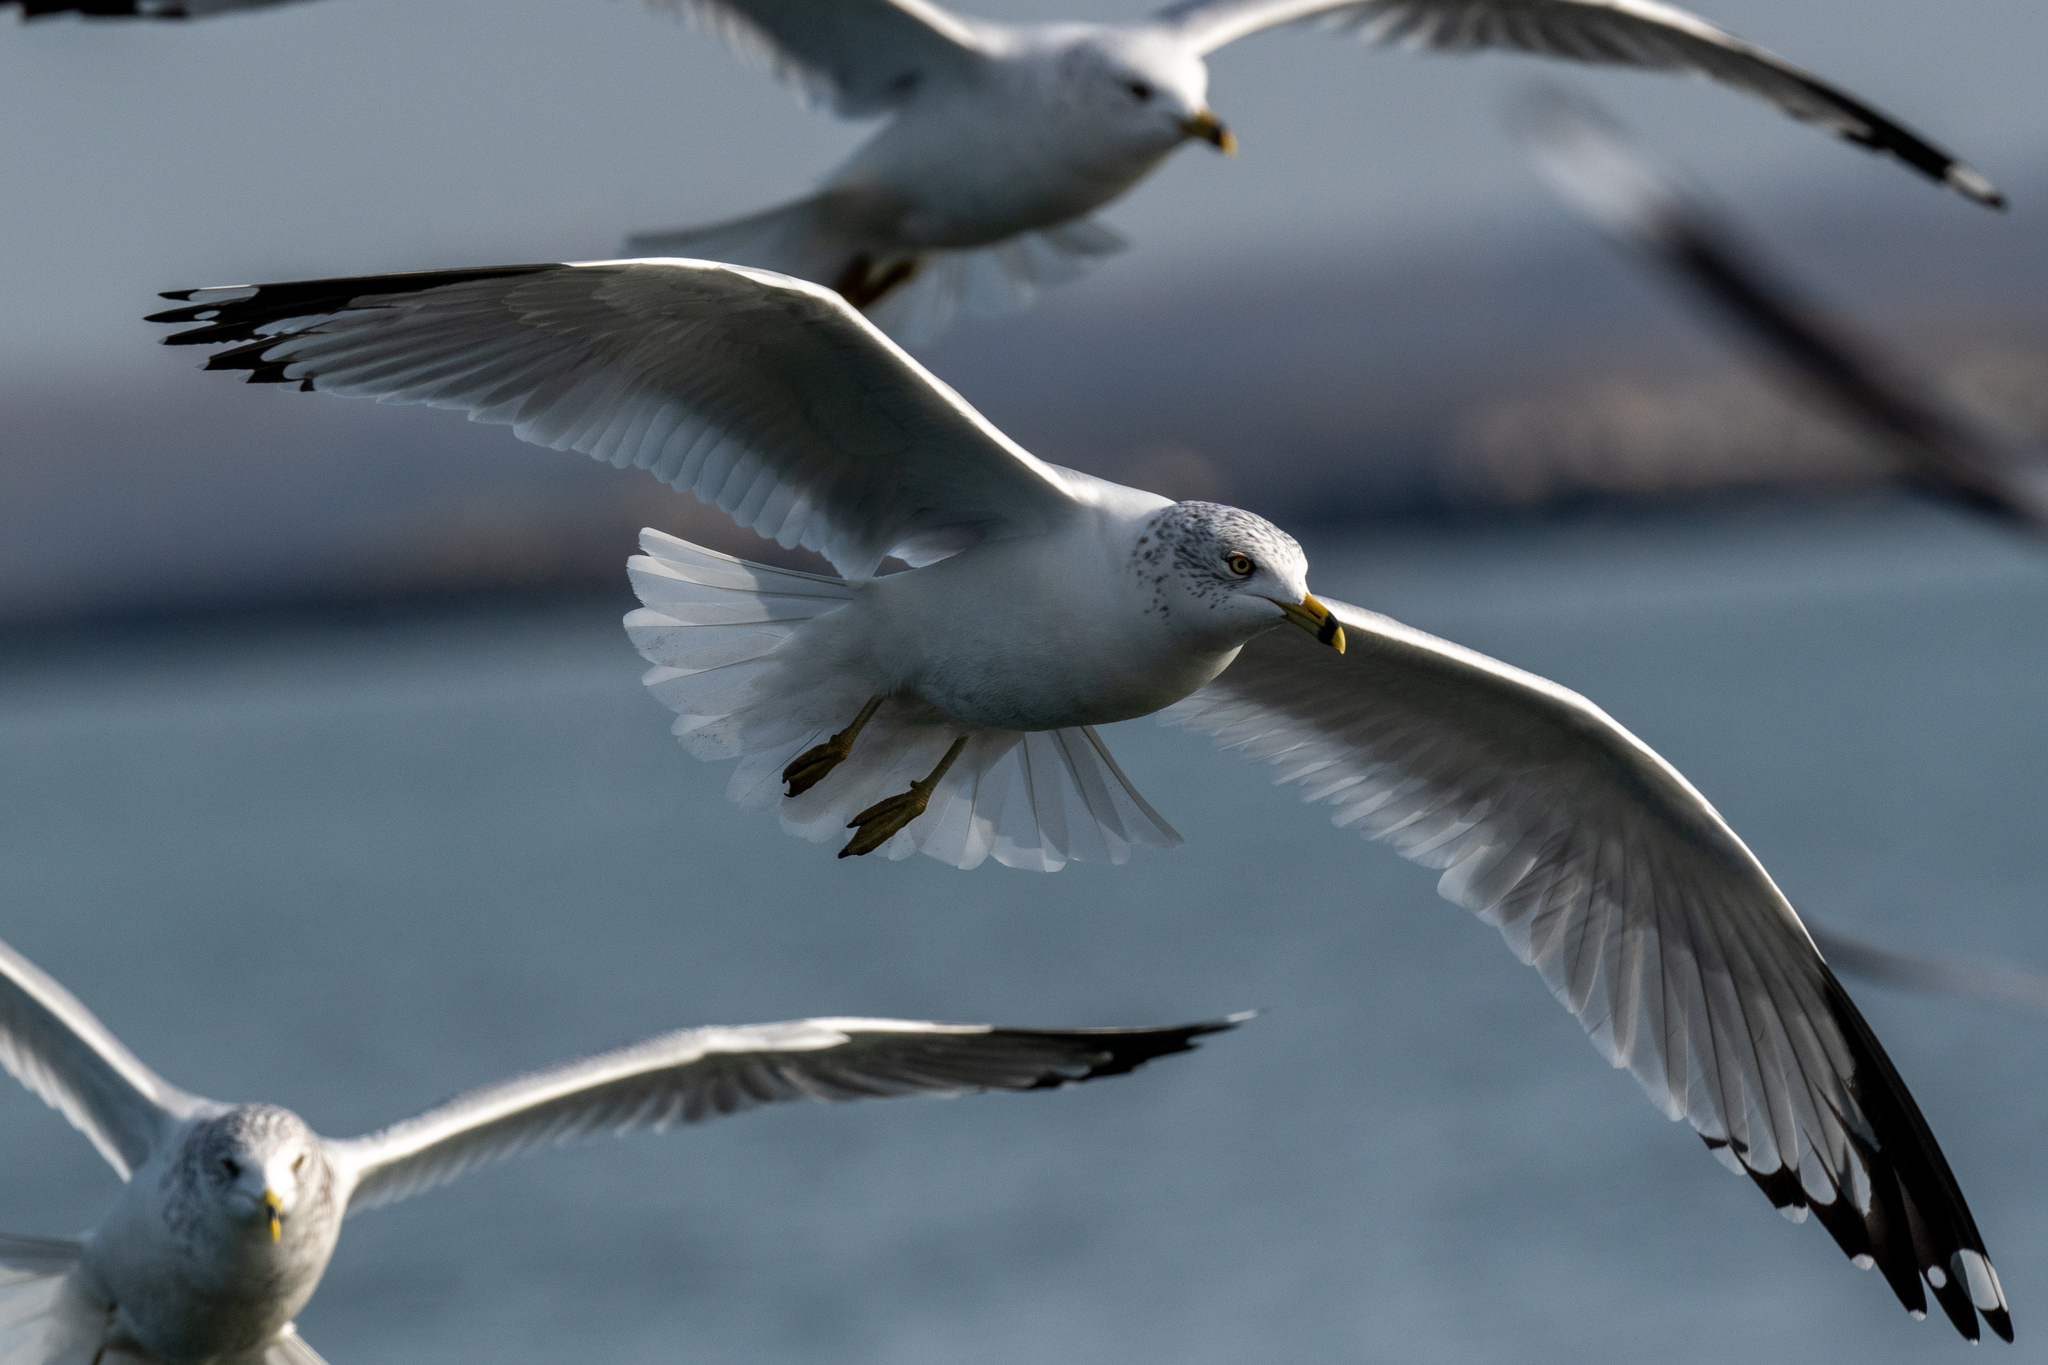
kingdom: Animalia
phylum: Chordata
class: Aves
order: Charadriiformes
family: Laridae
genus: Larus
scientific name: Larus delawarensis
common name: Ring-billed gull
